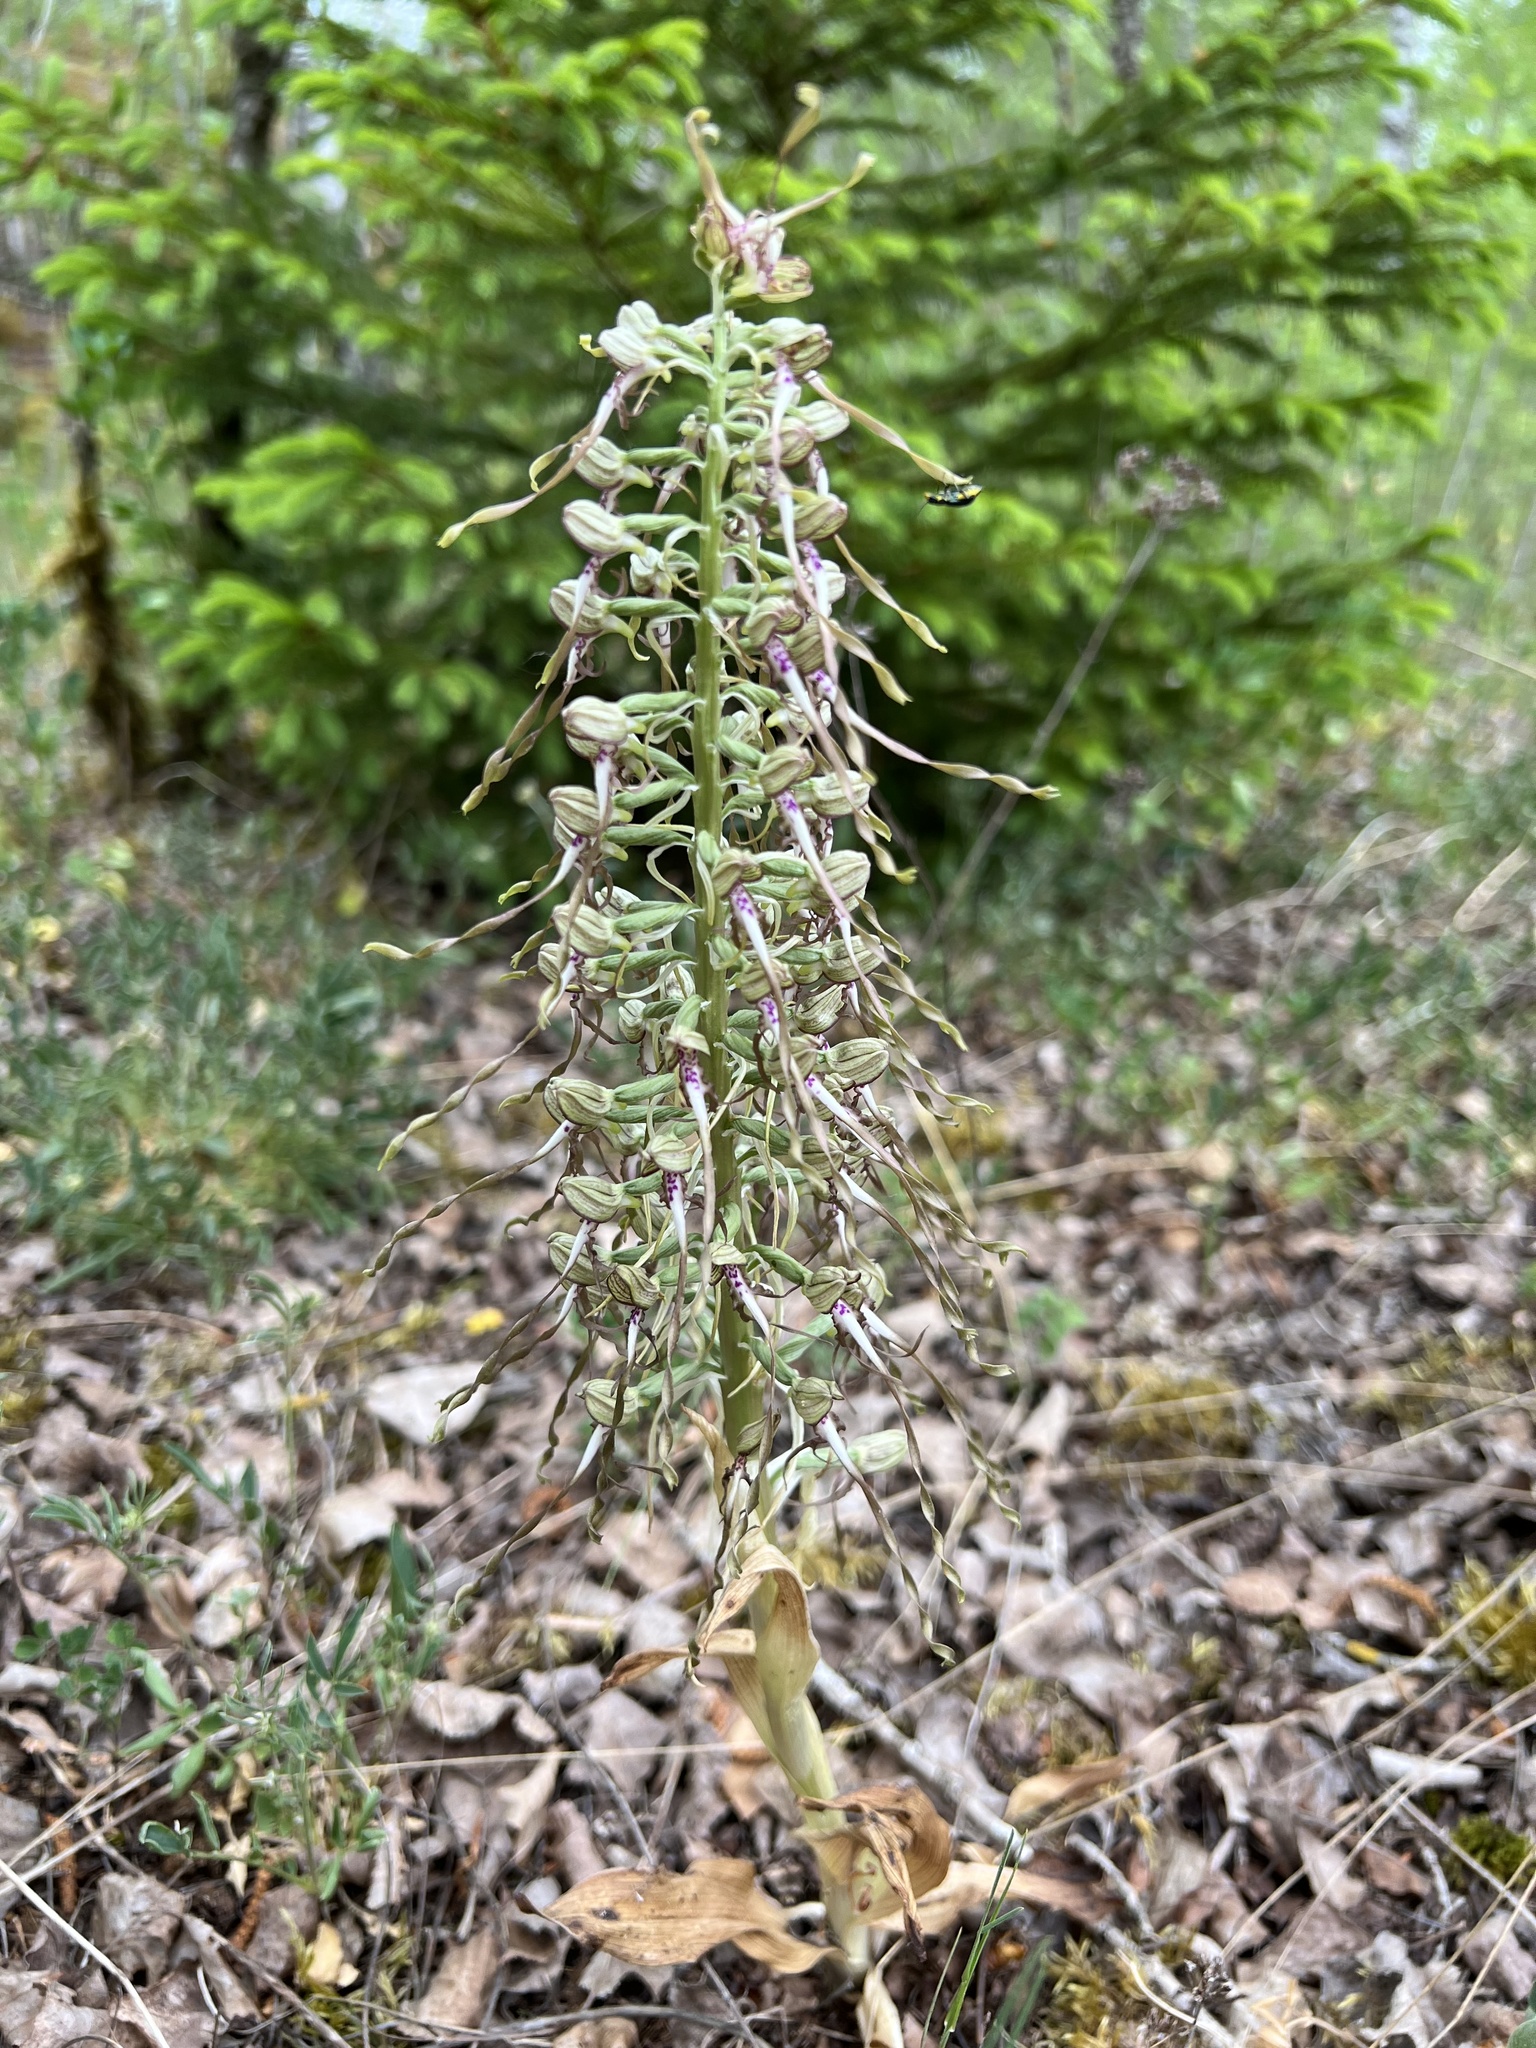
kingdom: Plantae
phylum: Tracheophyta
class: Liliopsida
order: Asparagales
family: Orchidaceae
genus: Himantoglossum
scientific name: Himantoglossum hircinum
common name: Lizard orchid
